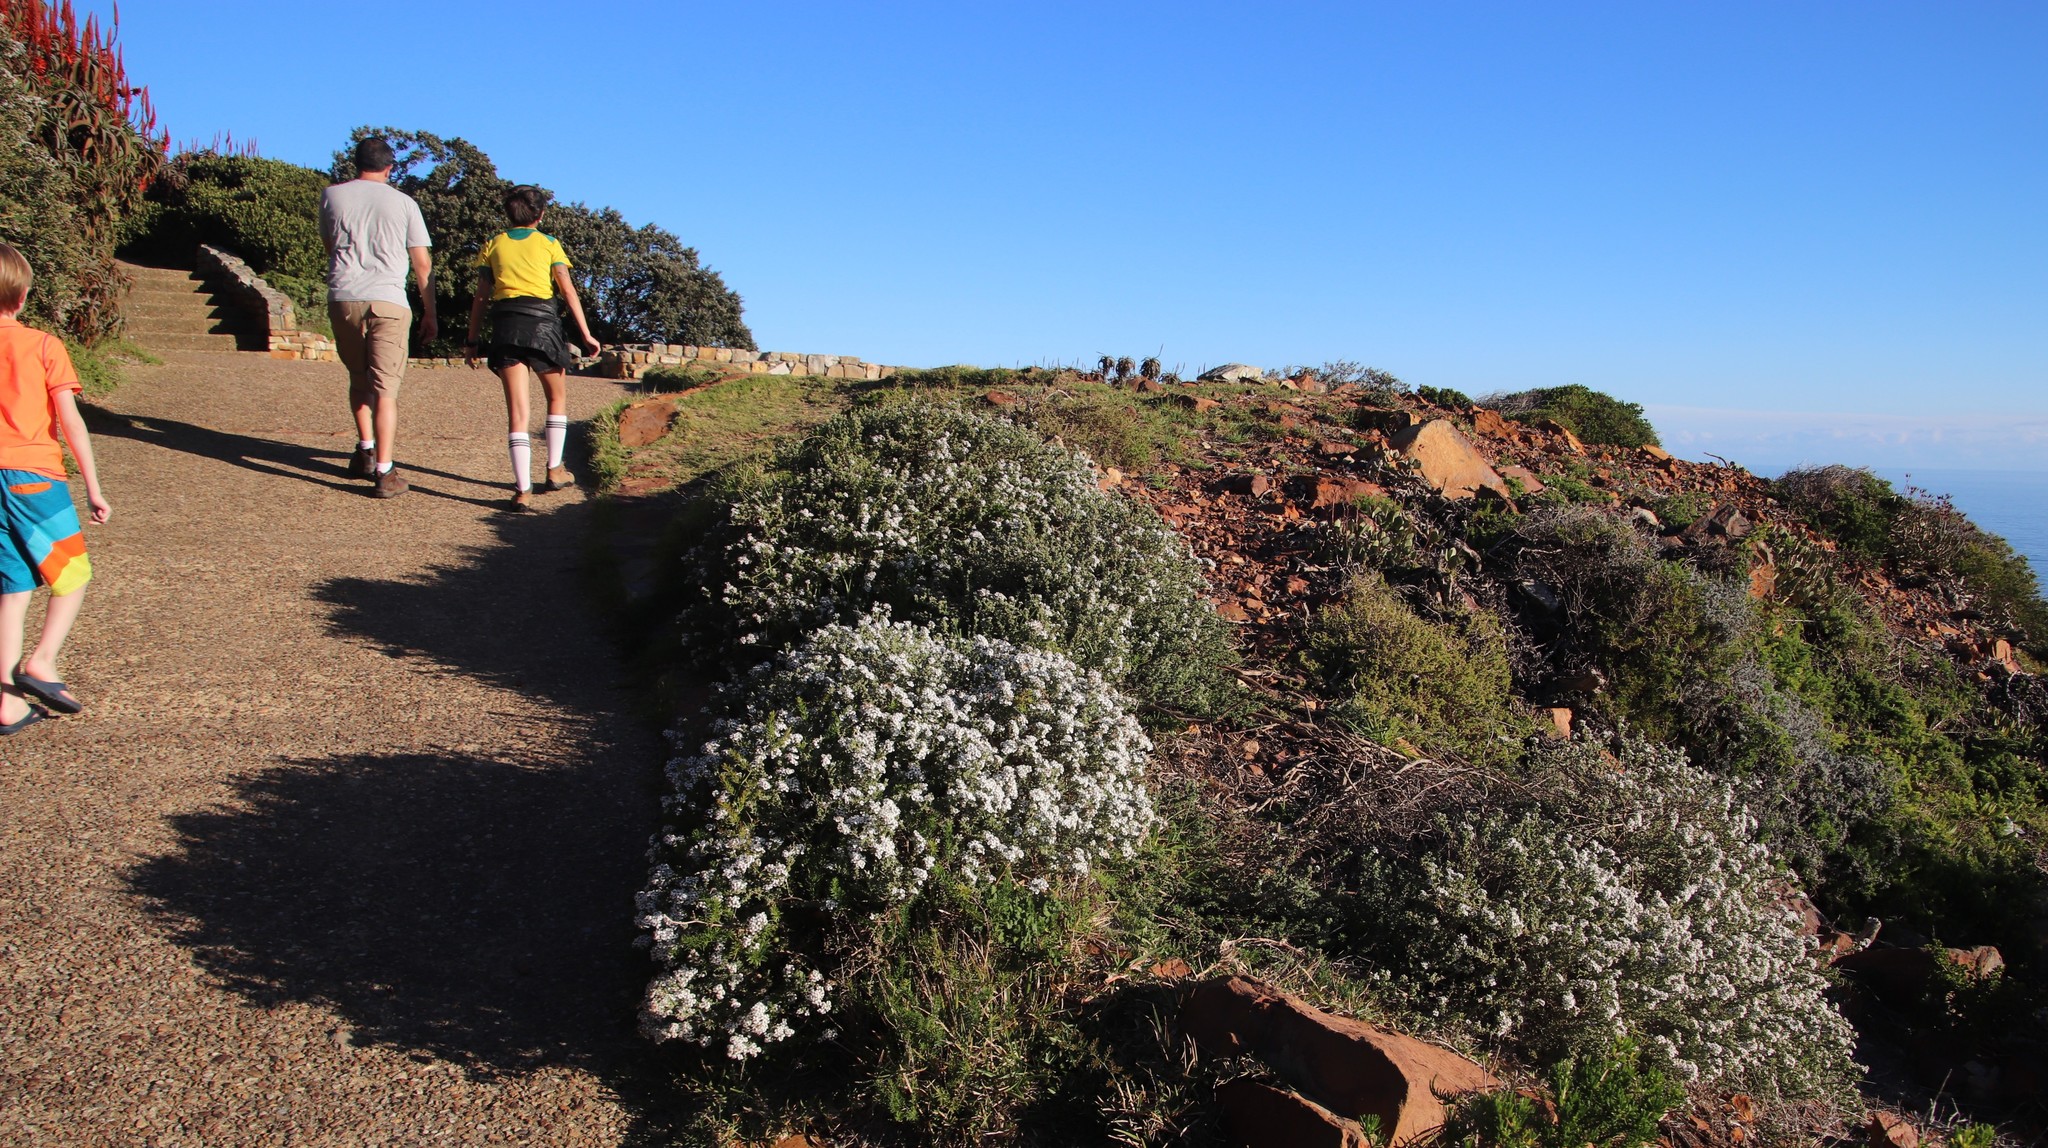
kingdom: Plantae
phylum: Tracheophyta
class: Magnoliopsida
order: Asterales
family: Asteraceae
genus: Eriocephalus
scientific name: Eriocephalus africanus
